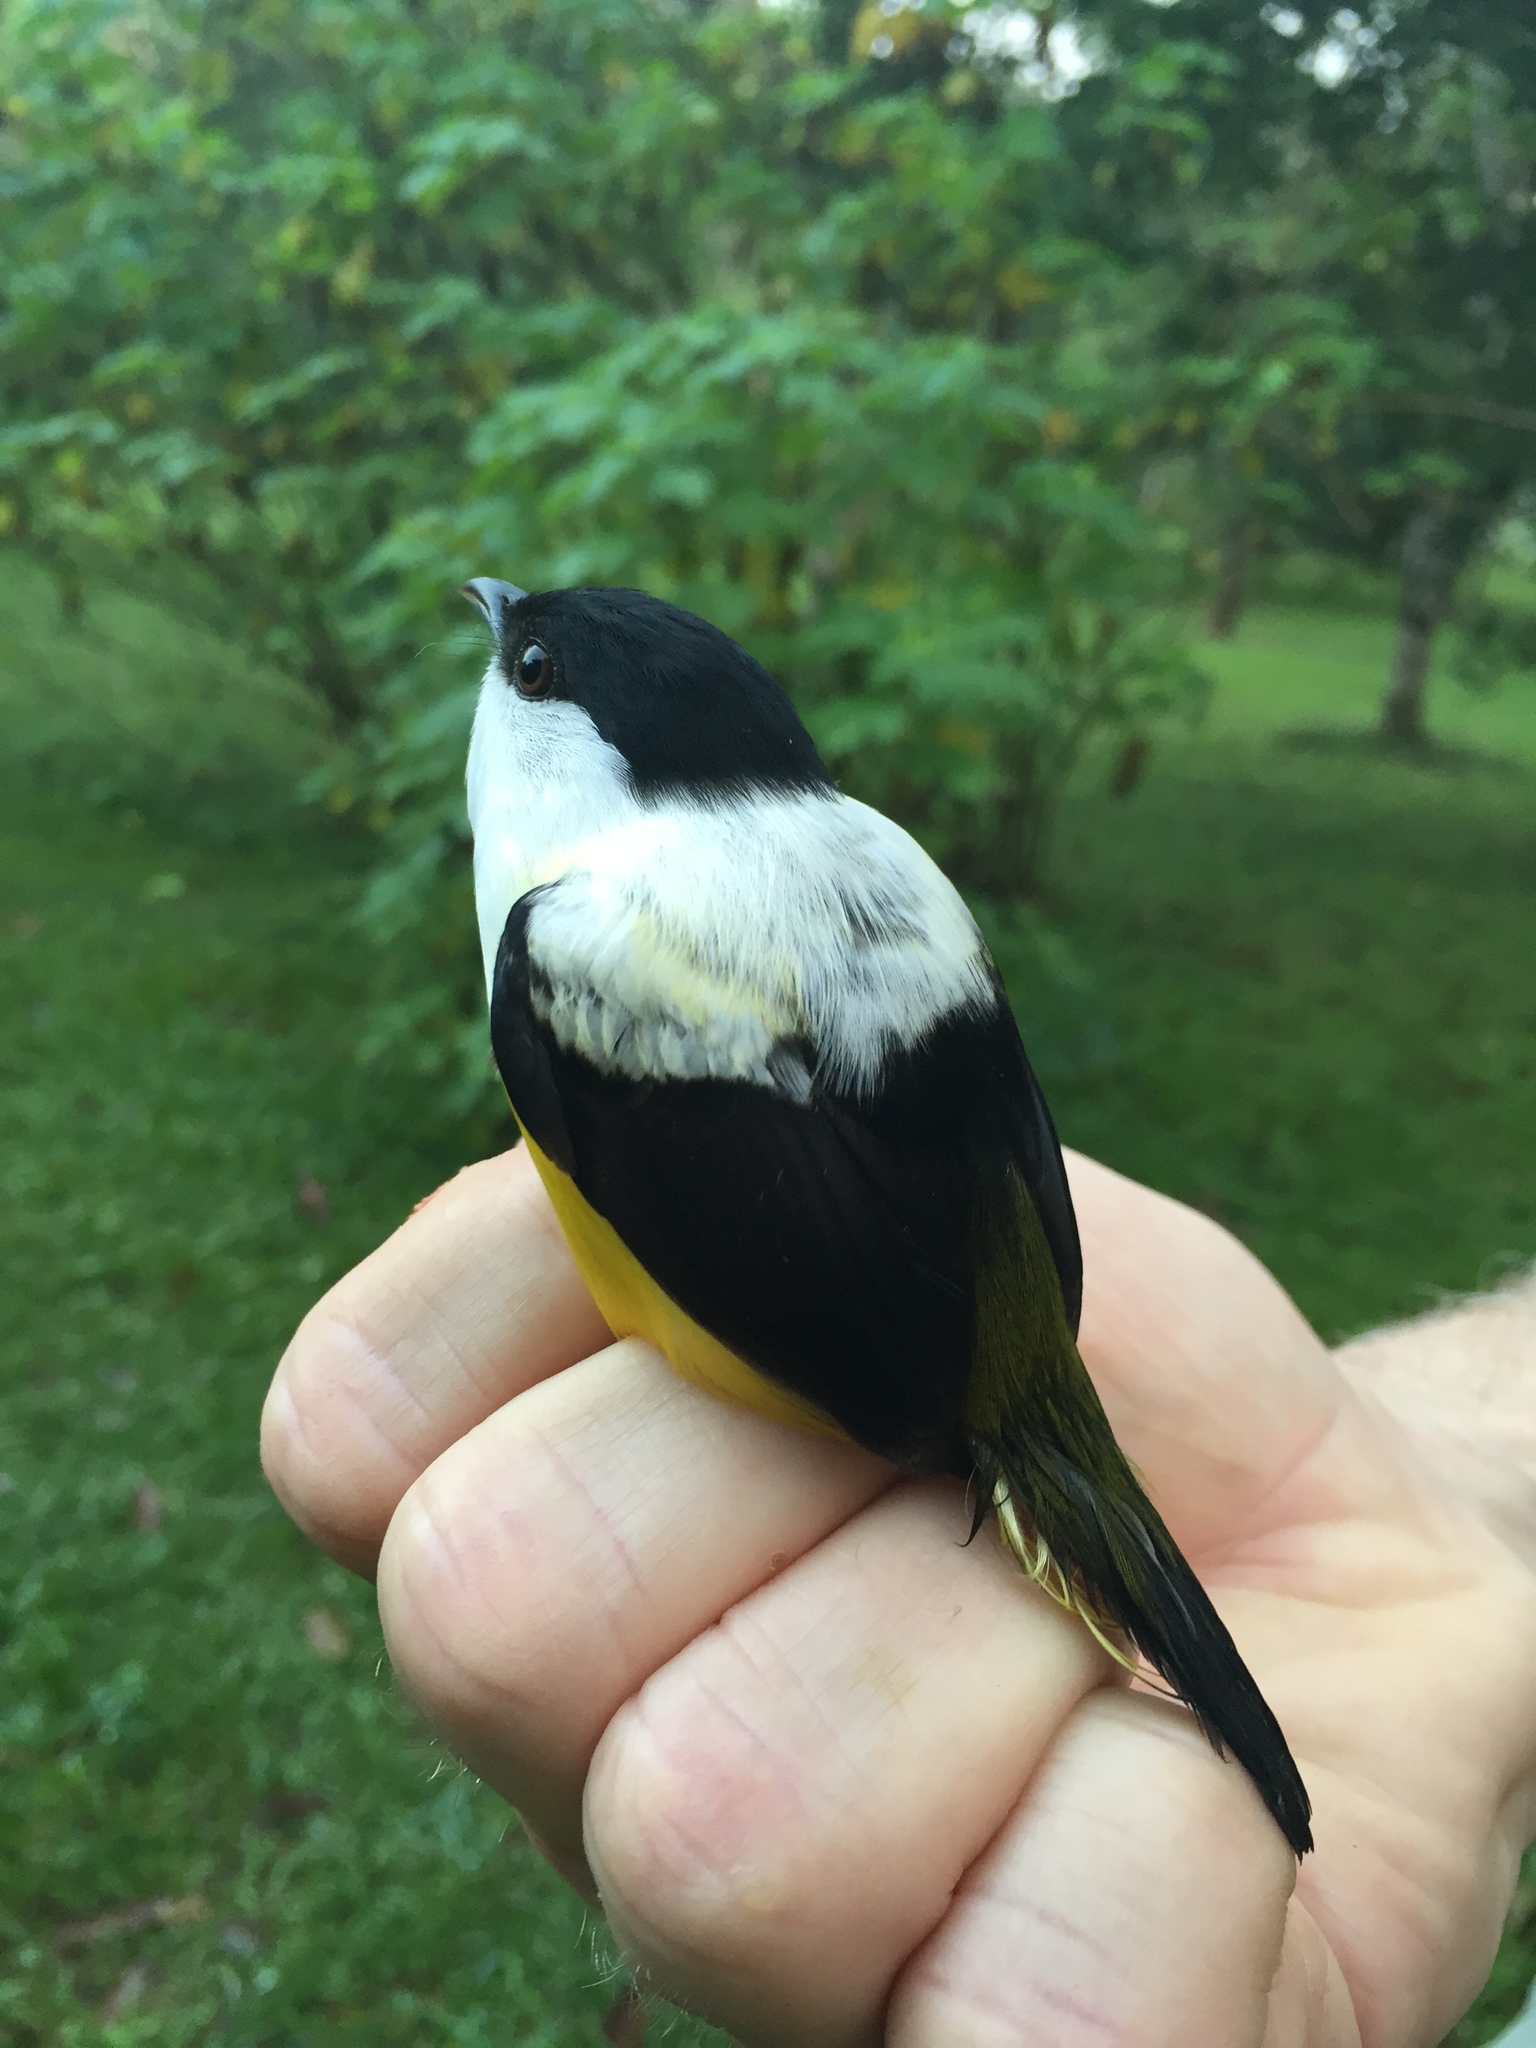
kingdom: Animalia
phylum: Chordata
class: Aves
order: Passeriformes
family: Pipridae
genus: Manacus
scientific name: Manacus candei
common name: White-collared manakin
